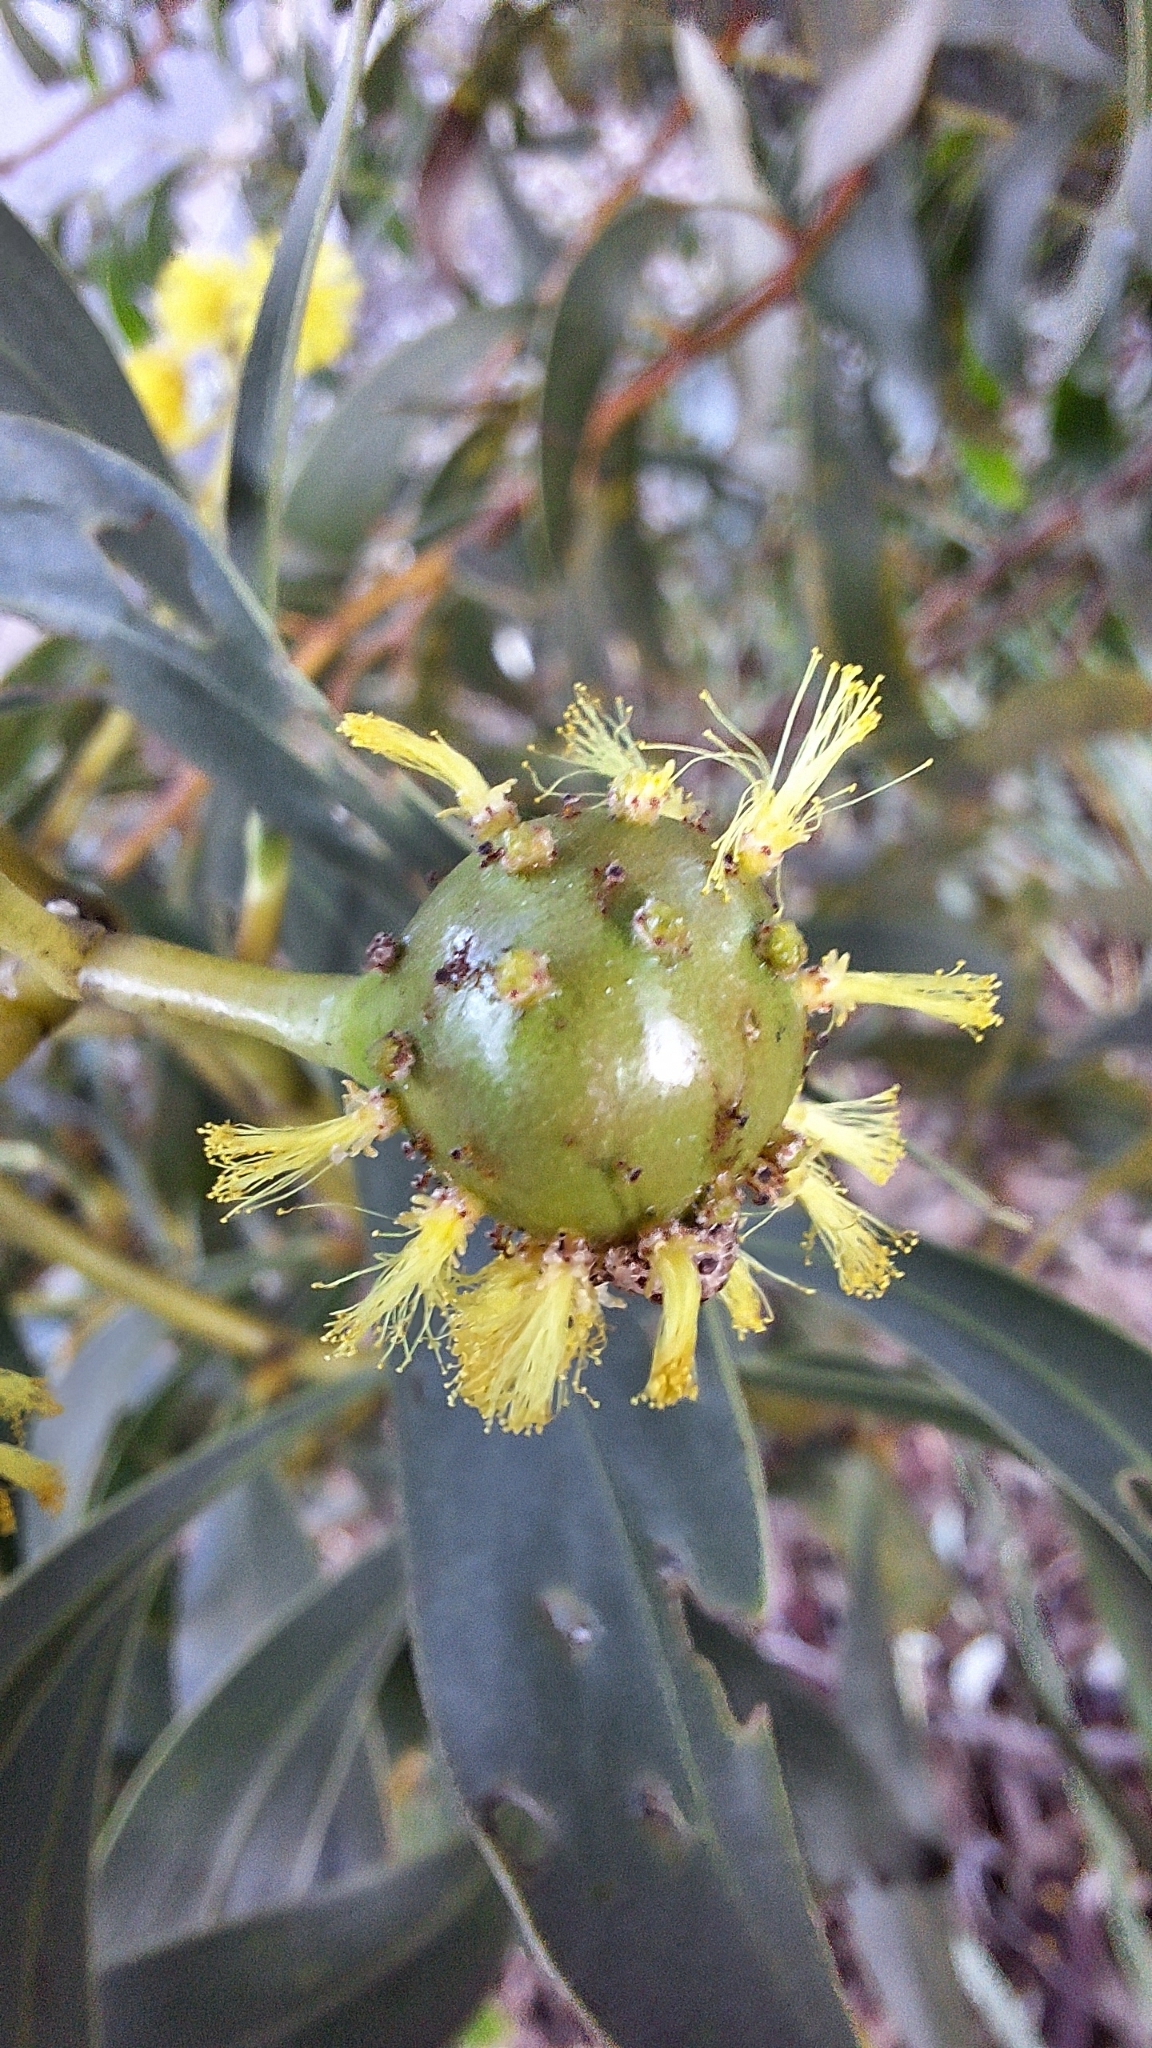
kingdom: Animalia
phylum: Arthropoda
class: Insecta
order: Hymenoptera
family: Pteromalidae
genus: Trichilogaster
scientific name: Trichilogaster signiventris
